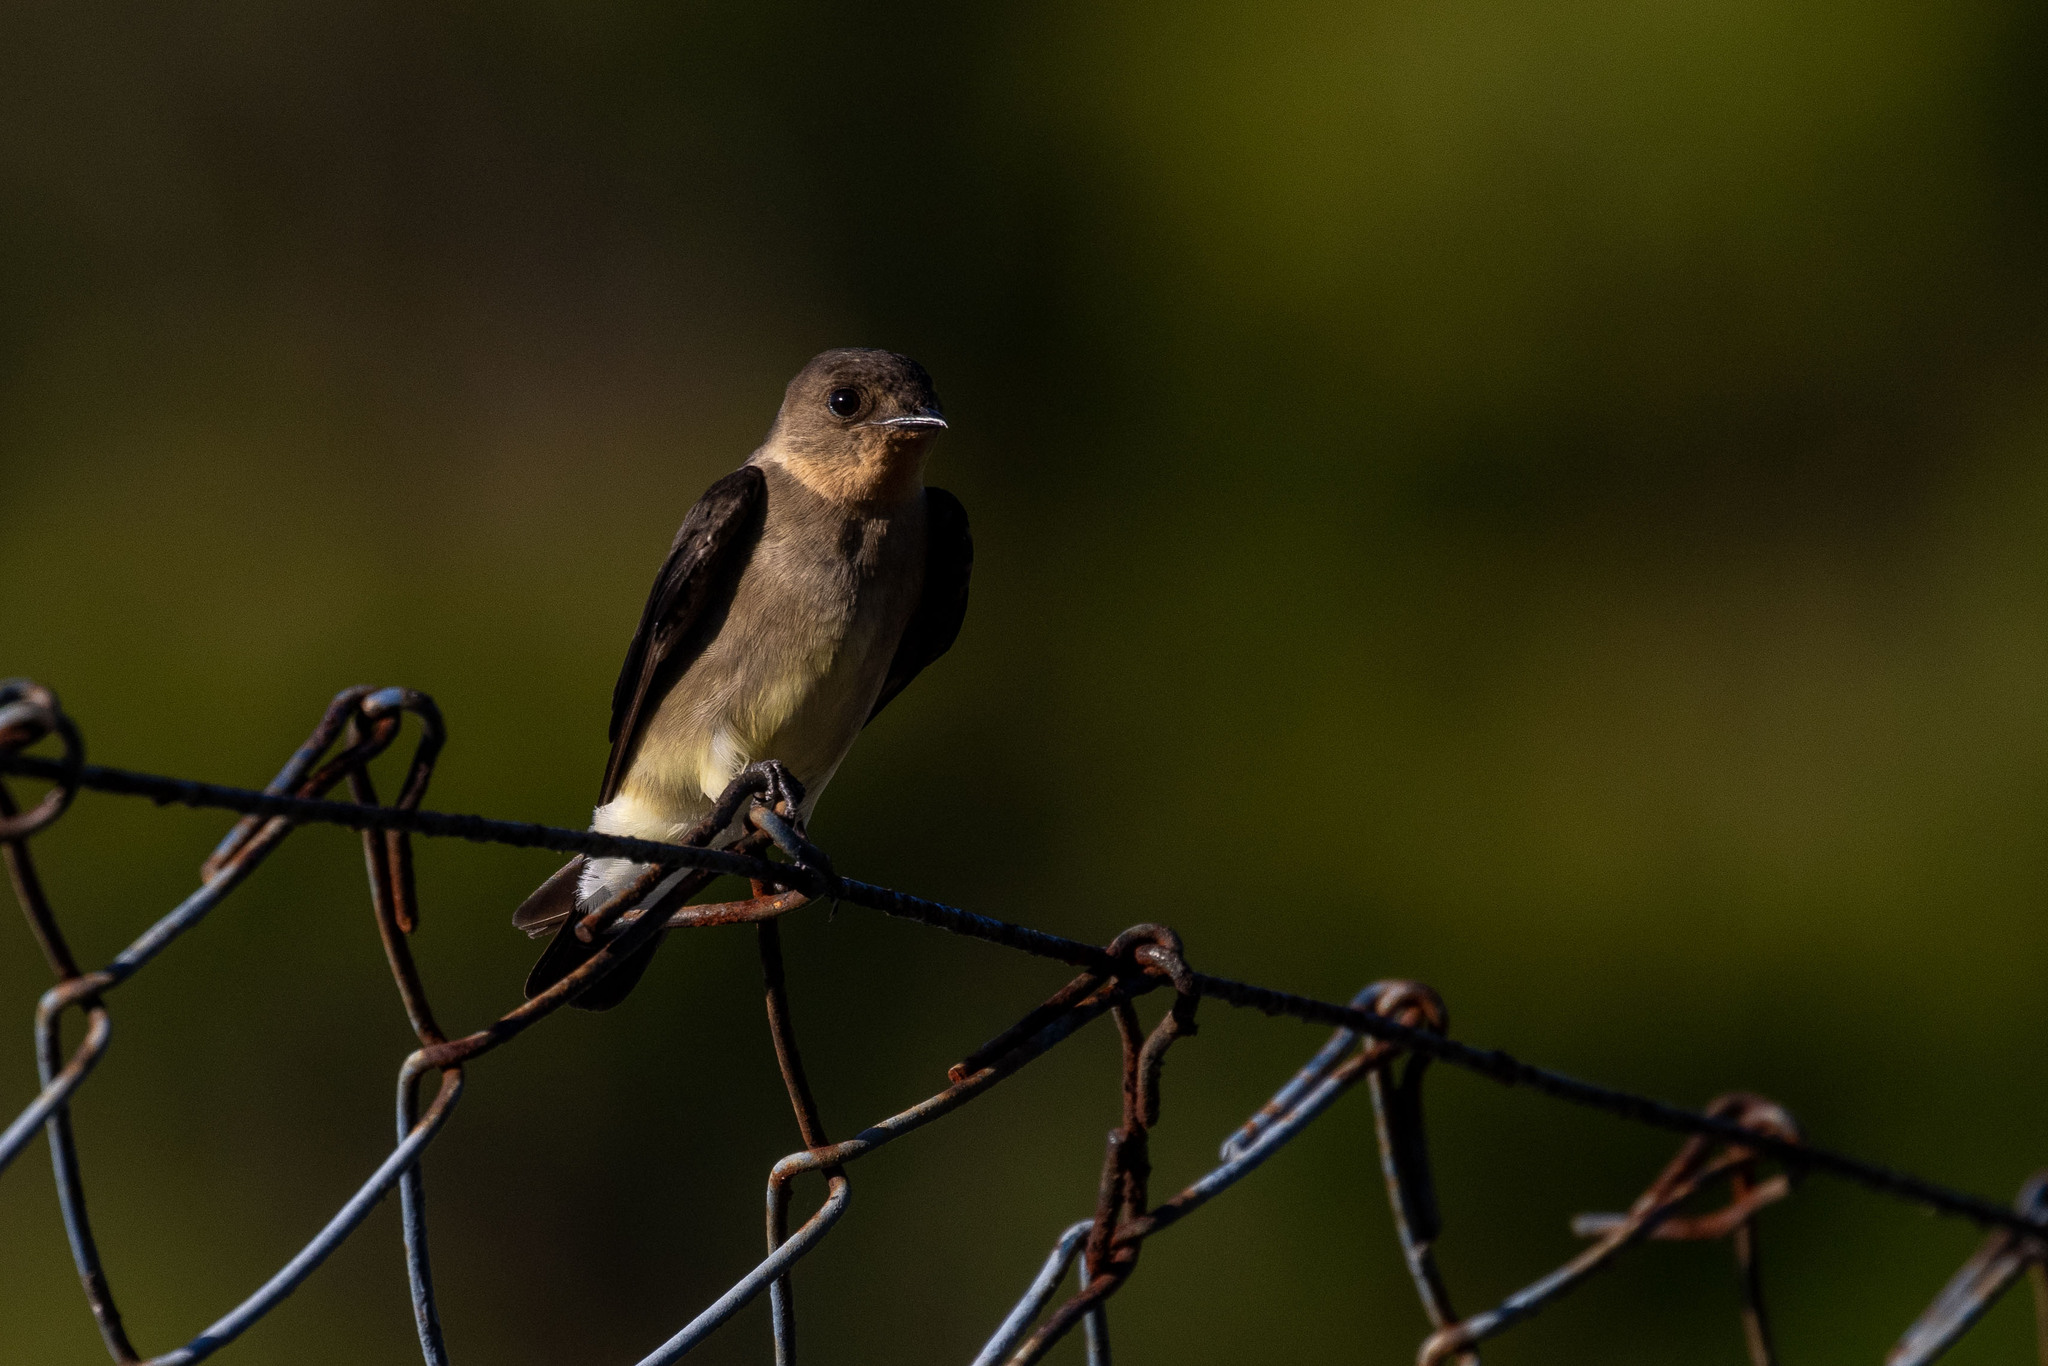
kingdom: Animalia
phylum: Chordata
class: Aves
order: Passeriformes
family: Hirundinidae
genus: Stelgidopteryx
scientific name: Stelgidopteryx ruficollis
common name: Southern rough-winged swallow
